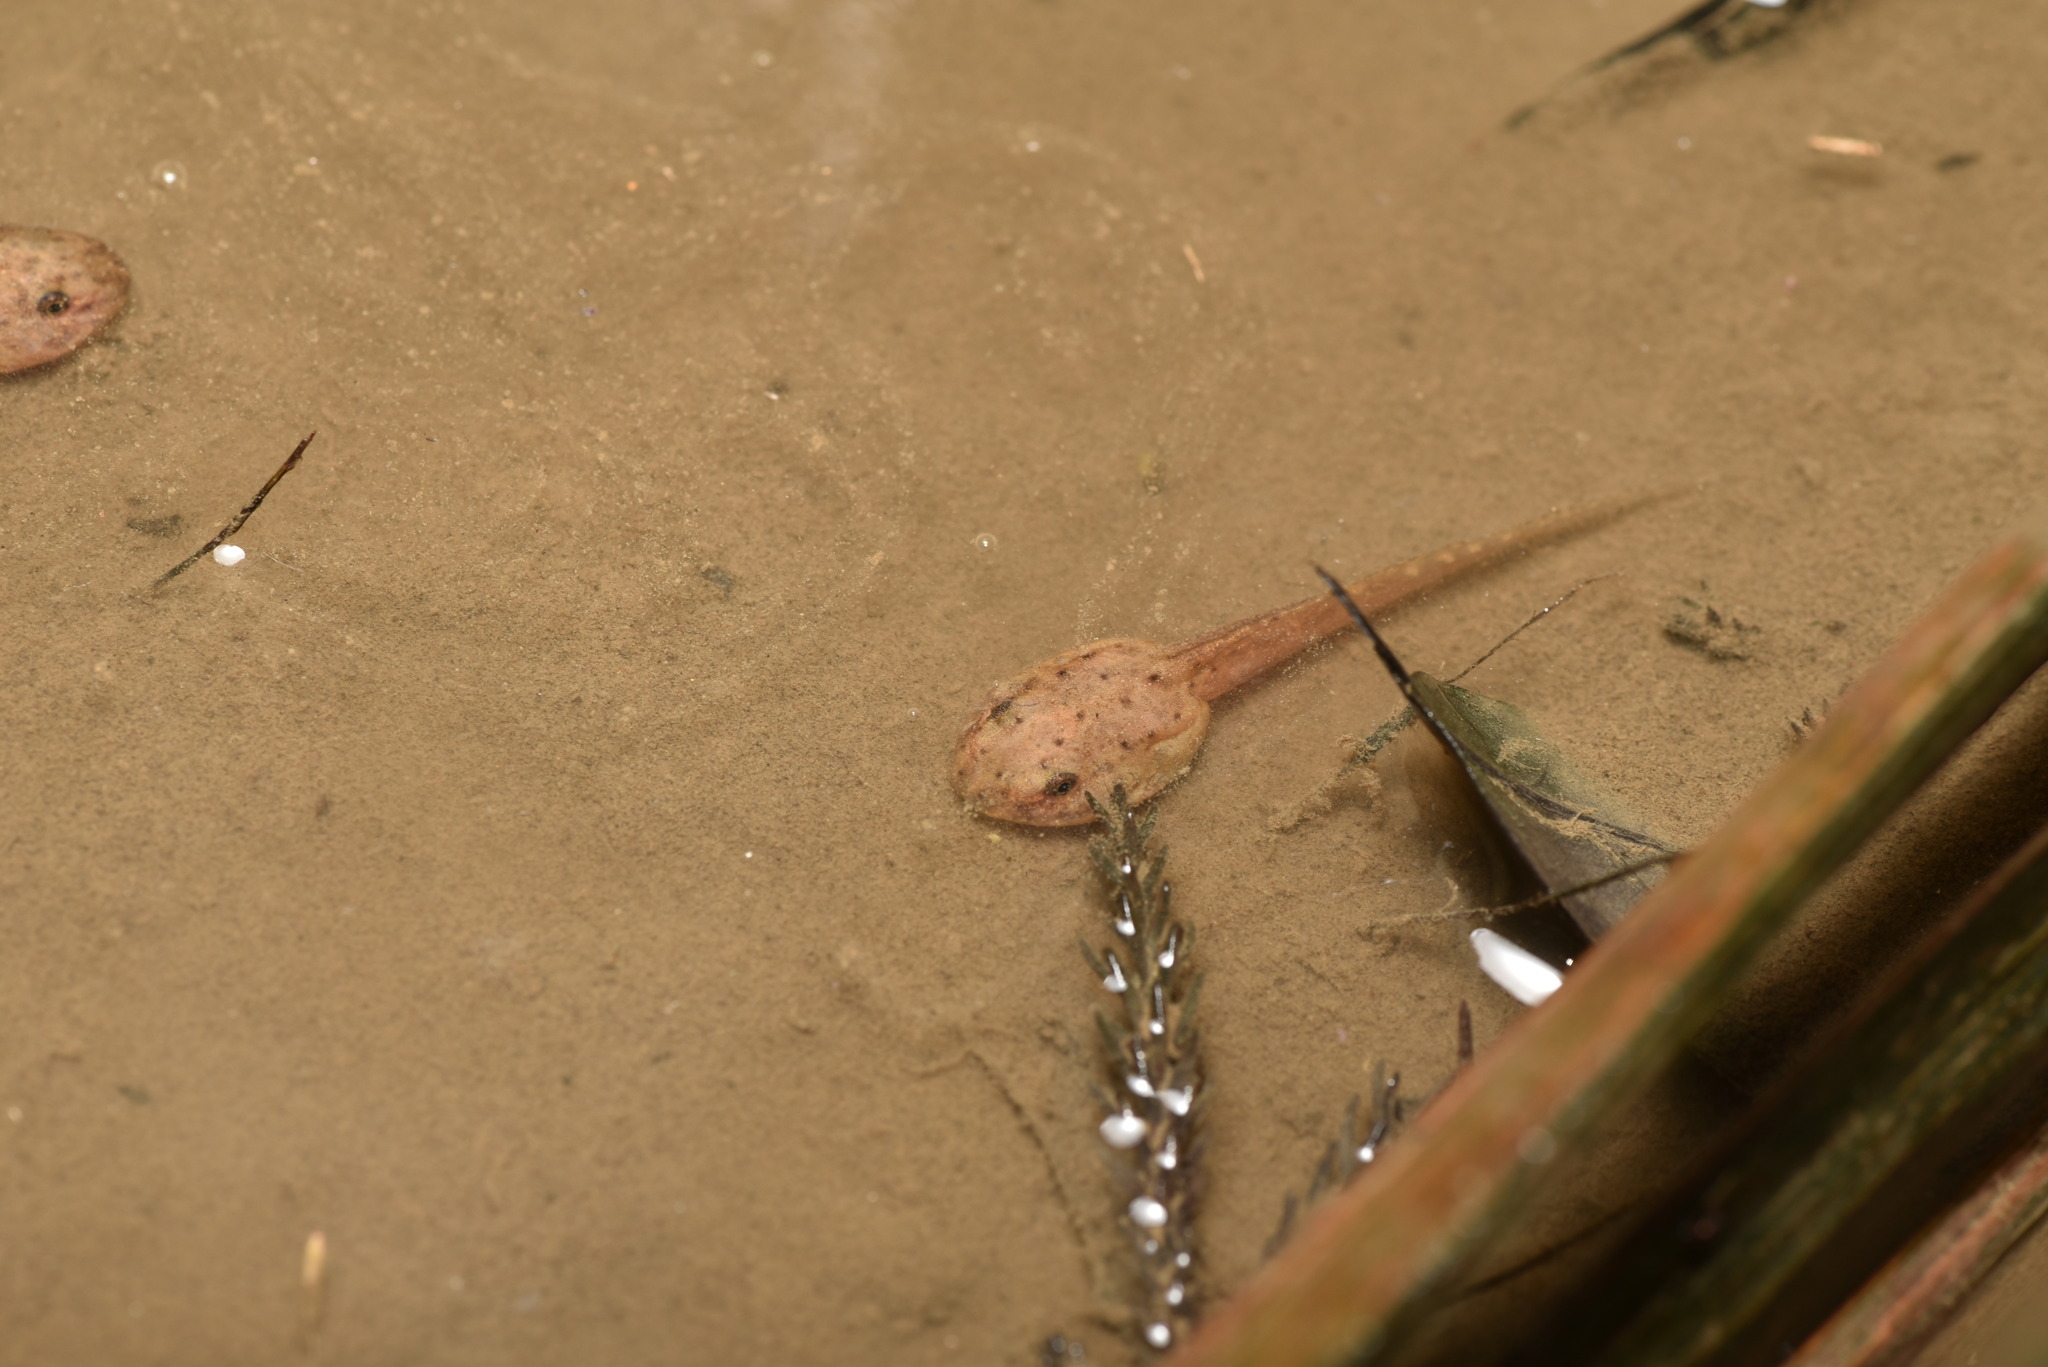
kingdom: Animalia
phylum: Chordata
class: Amphibia
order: Anura
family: Ranidae
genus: Hylarana
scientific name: Hylarana latouchii
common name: Broad-folded frog
